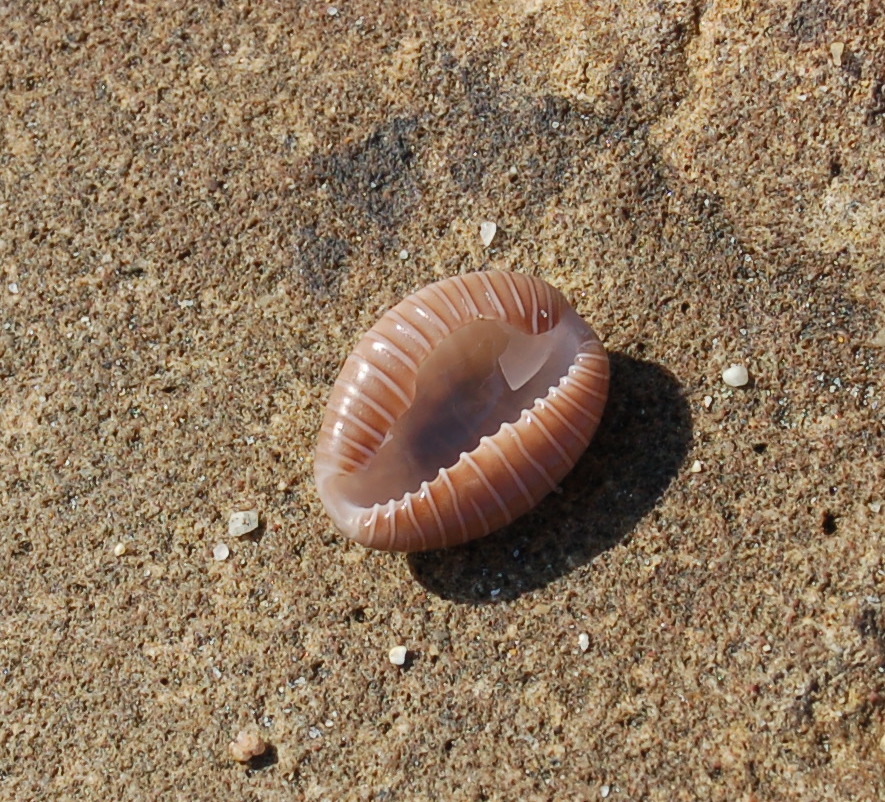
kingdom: Animalia
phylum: Mollusca
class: Gastropoda
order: Littorinimorpha
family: Triviidae
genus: Pusula
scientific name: Pusula radians
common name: Radians trivia
